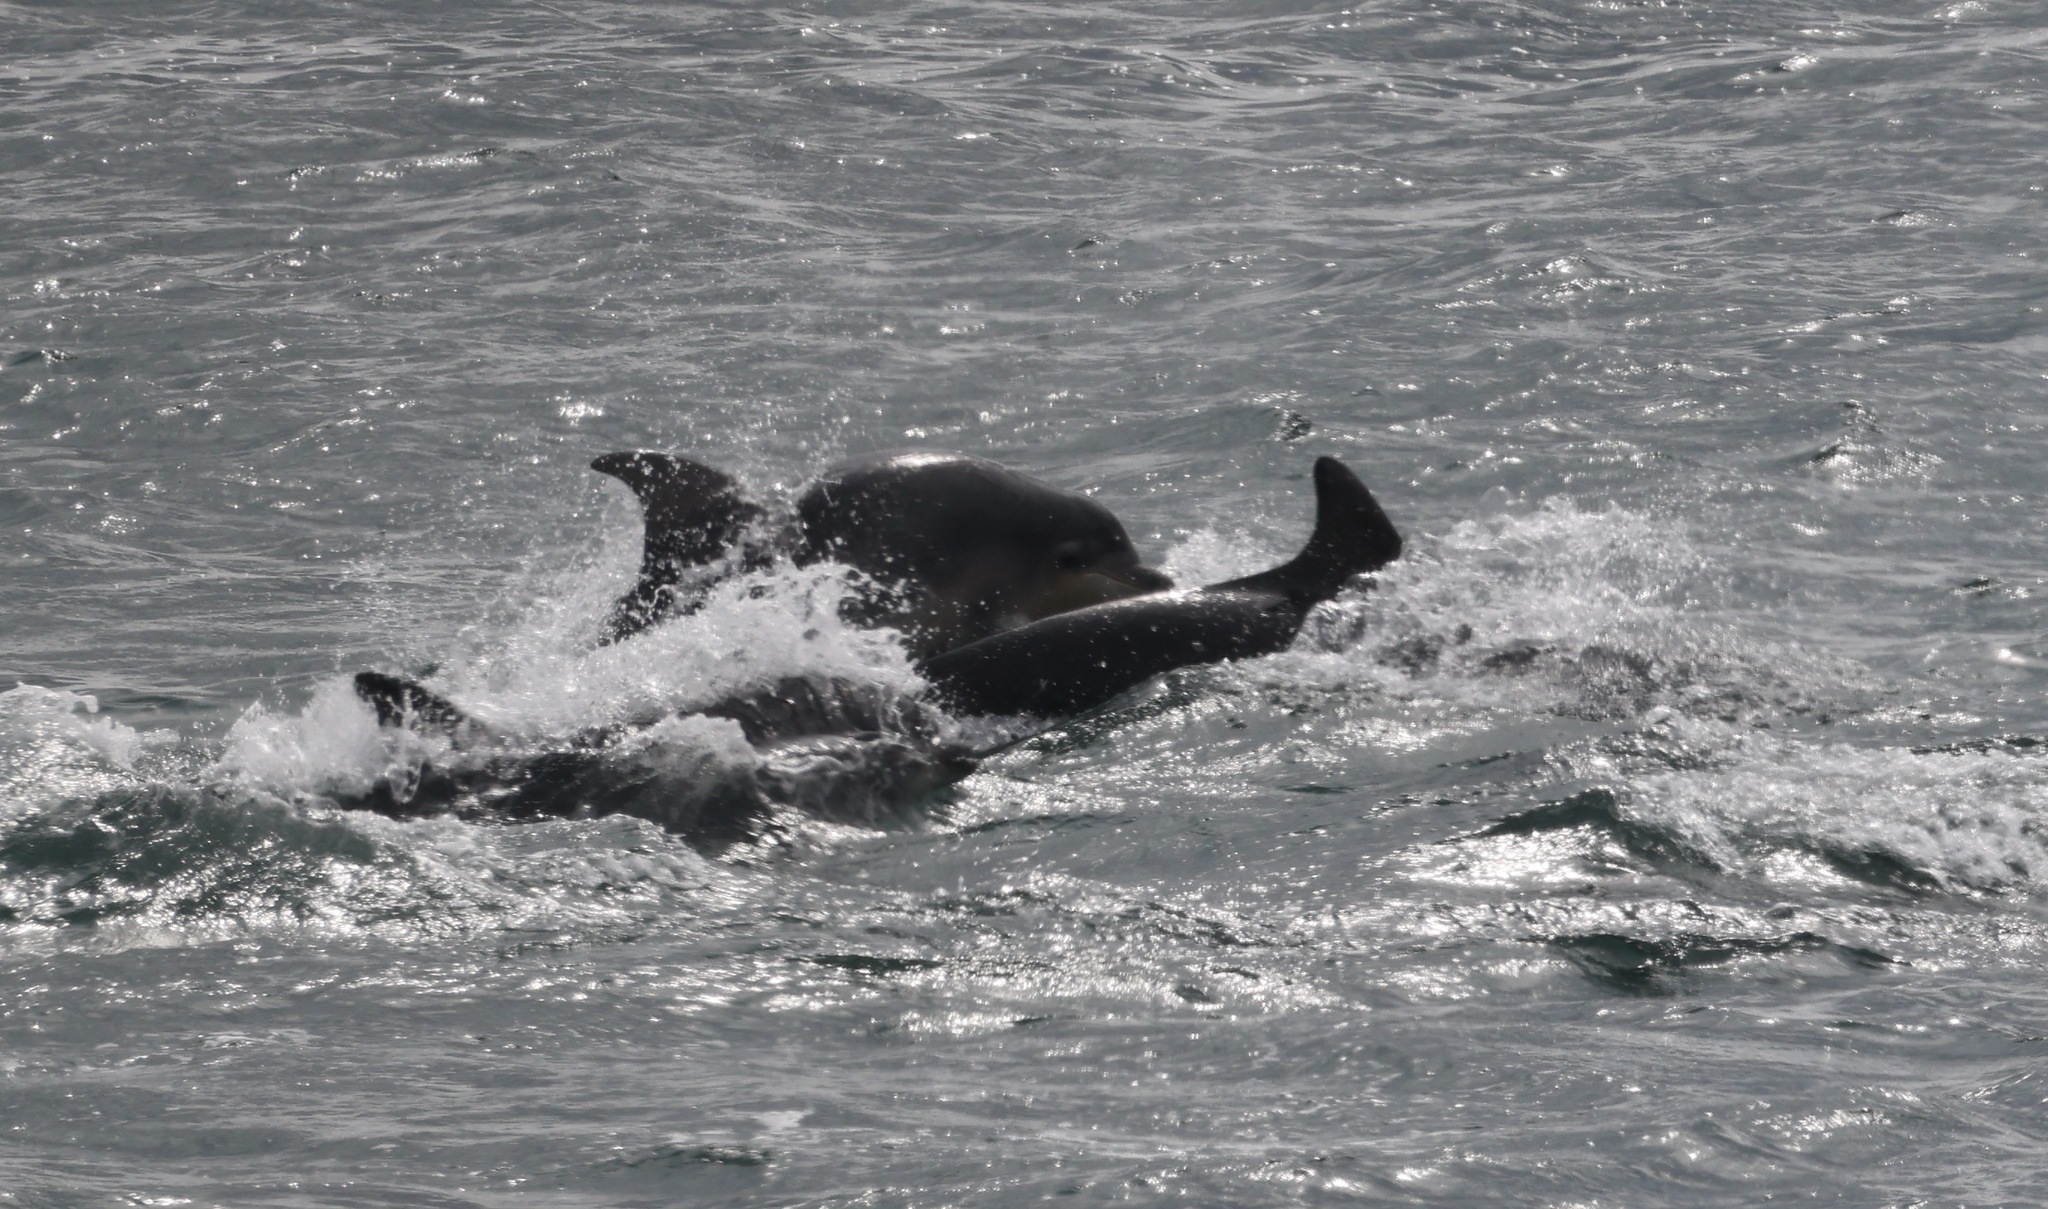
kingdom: Animalia
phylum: Chordata
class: Mammalia
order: Cetacea
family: Delphinidae
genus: Tursiops
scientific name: Tursiops truncatus
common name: Bottlenose dolphin
